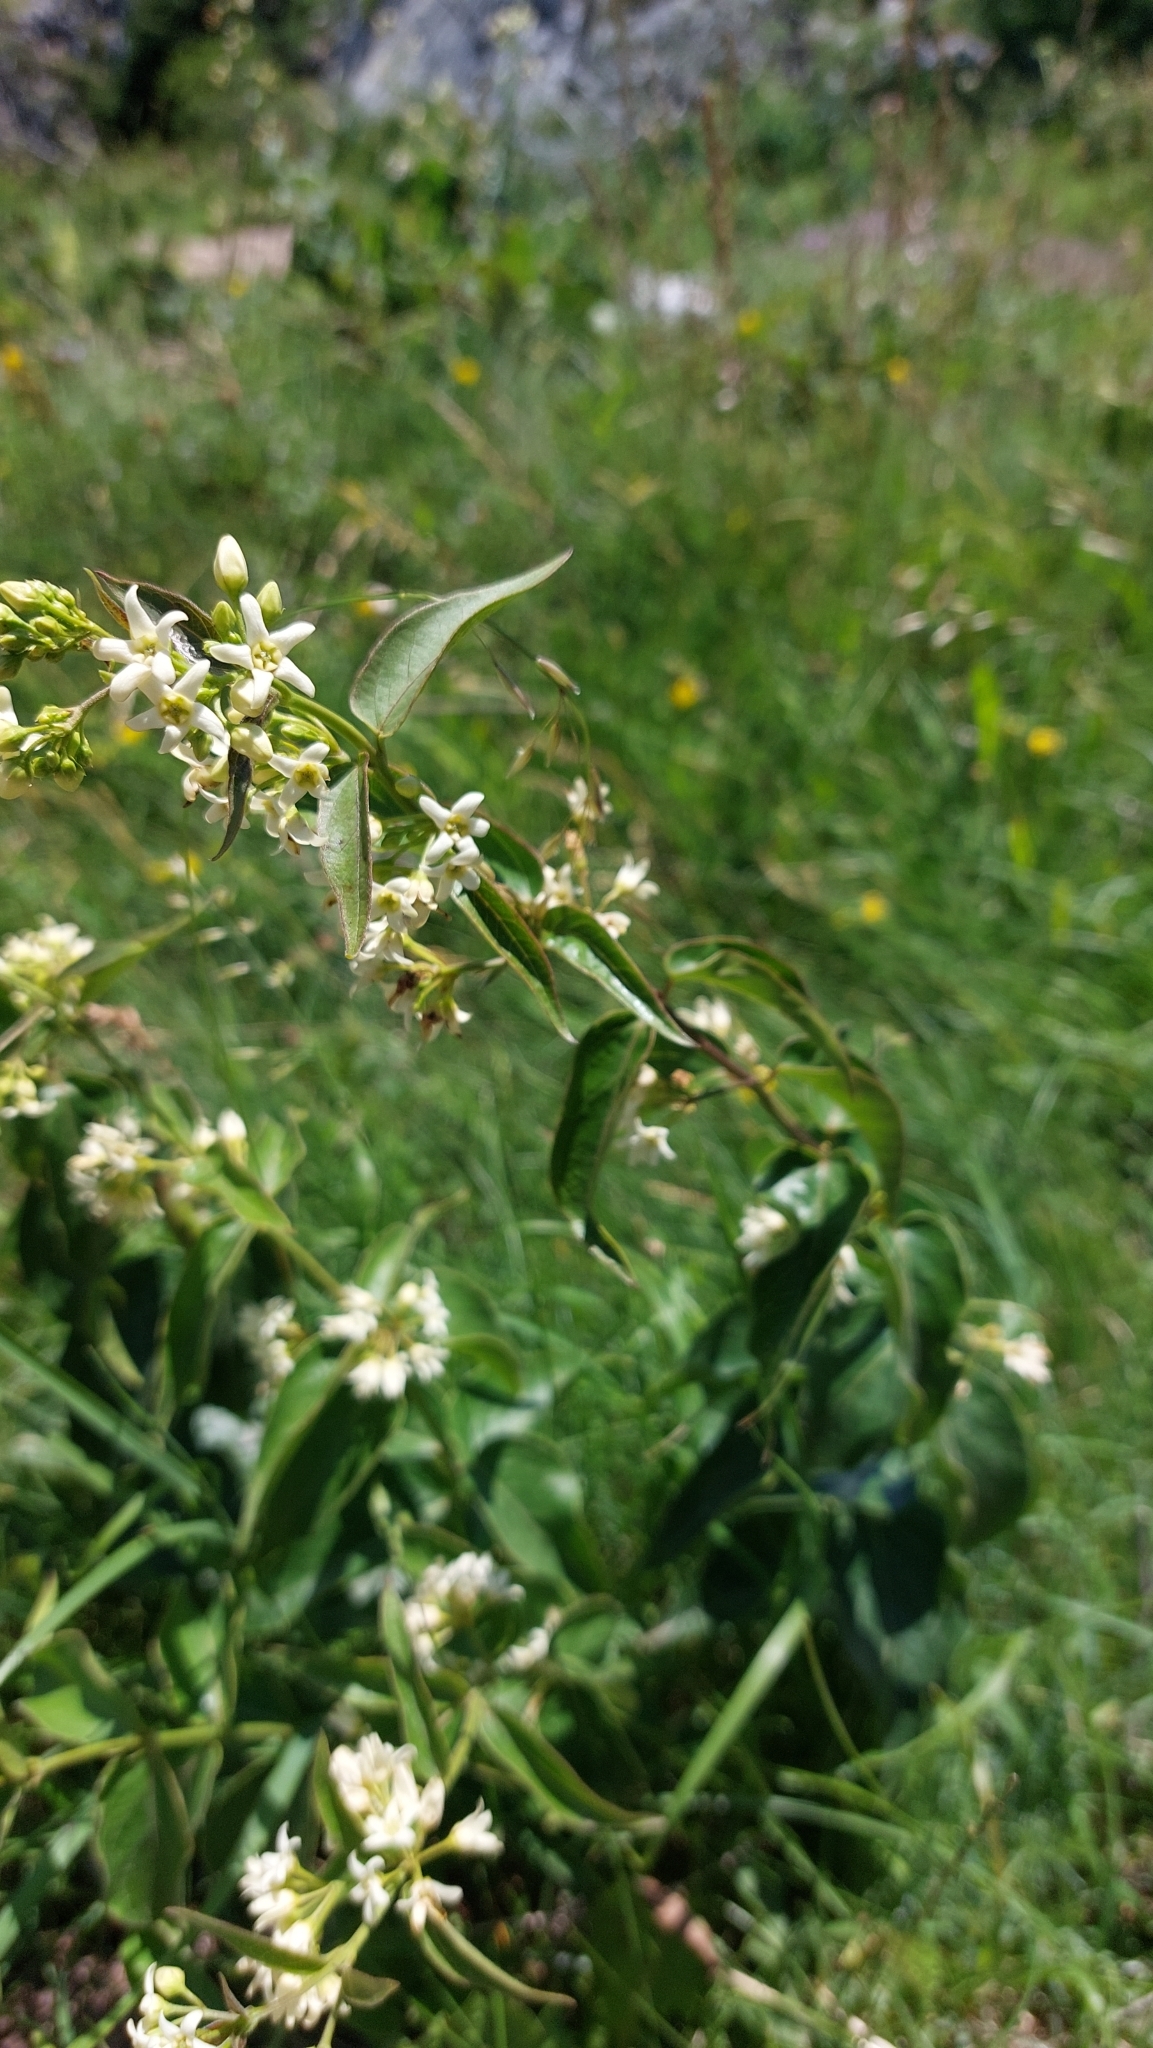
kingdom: Plantae
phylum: Tracheophyta
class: Magnoliopsida
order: Gentianales
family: Apocynaceae
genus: Vincetoxicum
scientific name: Vincetoxicum hirundinaria
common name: White swallowwort
